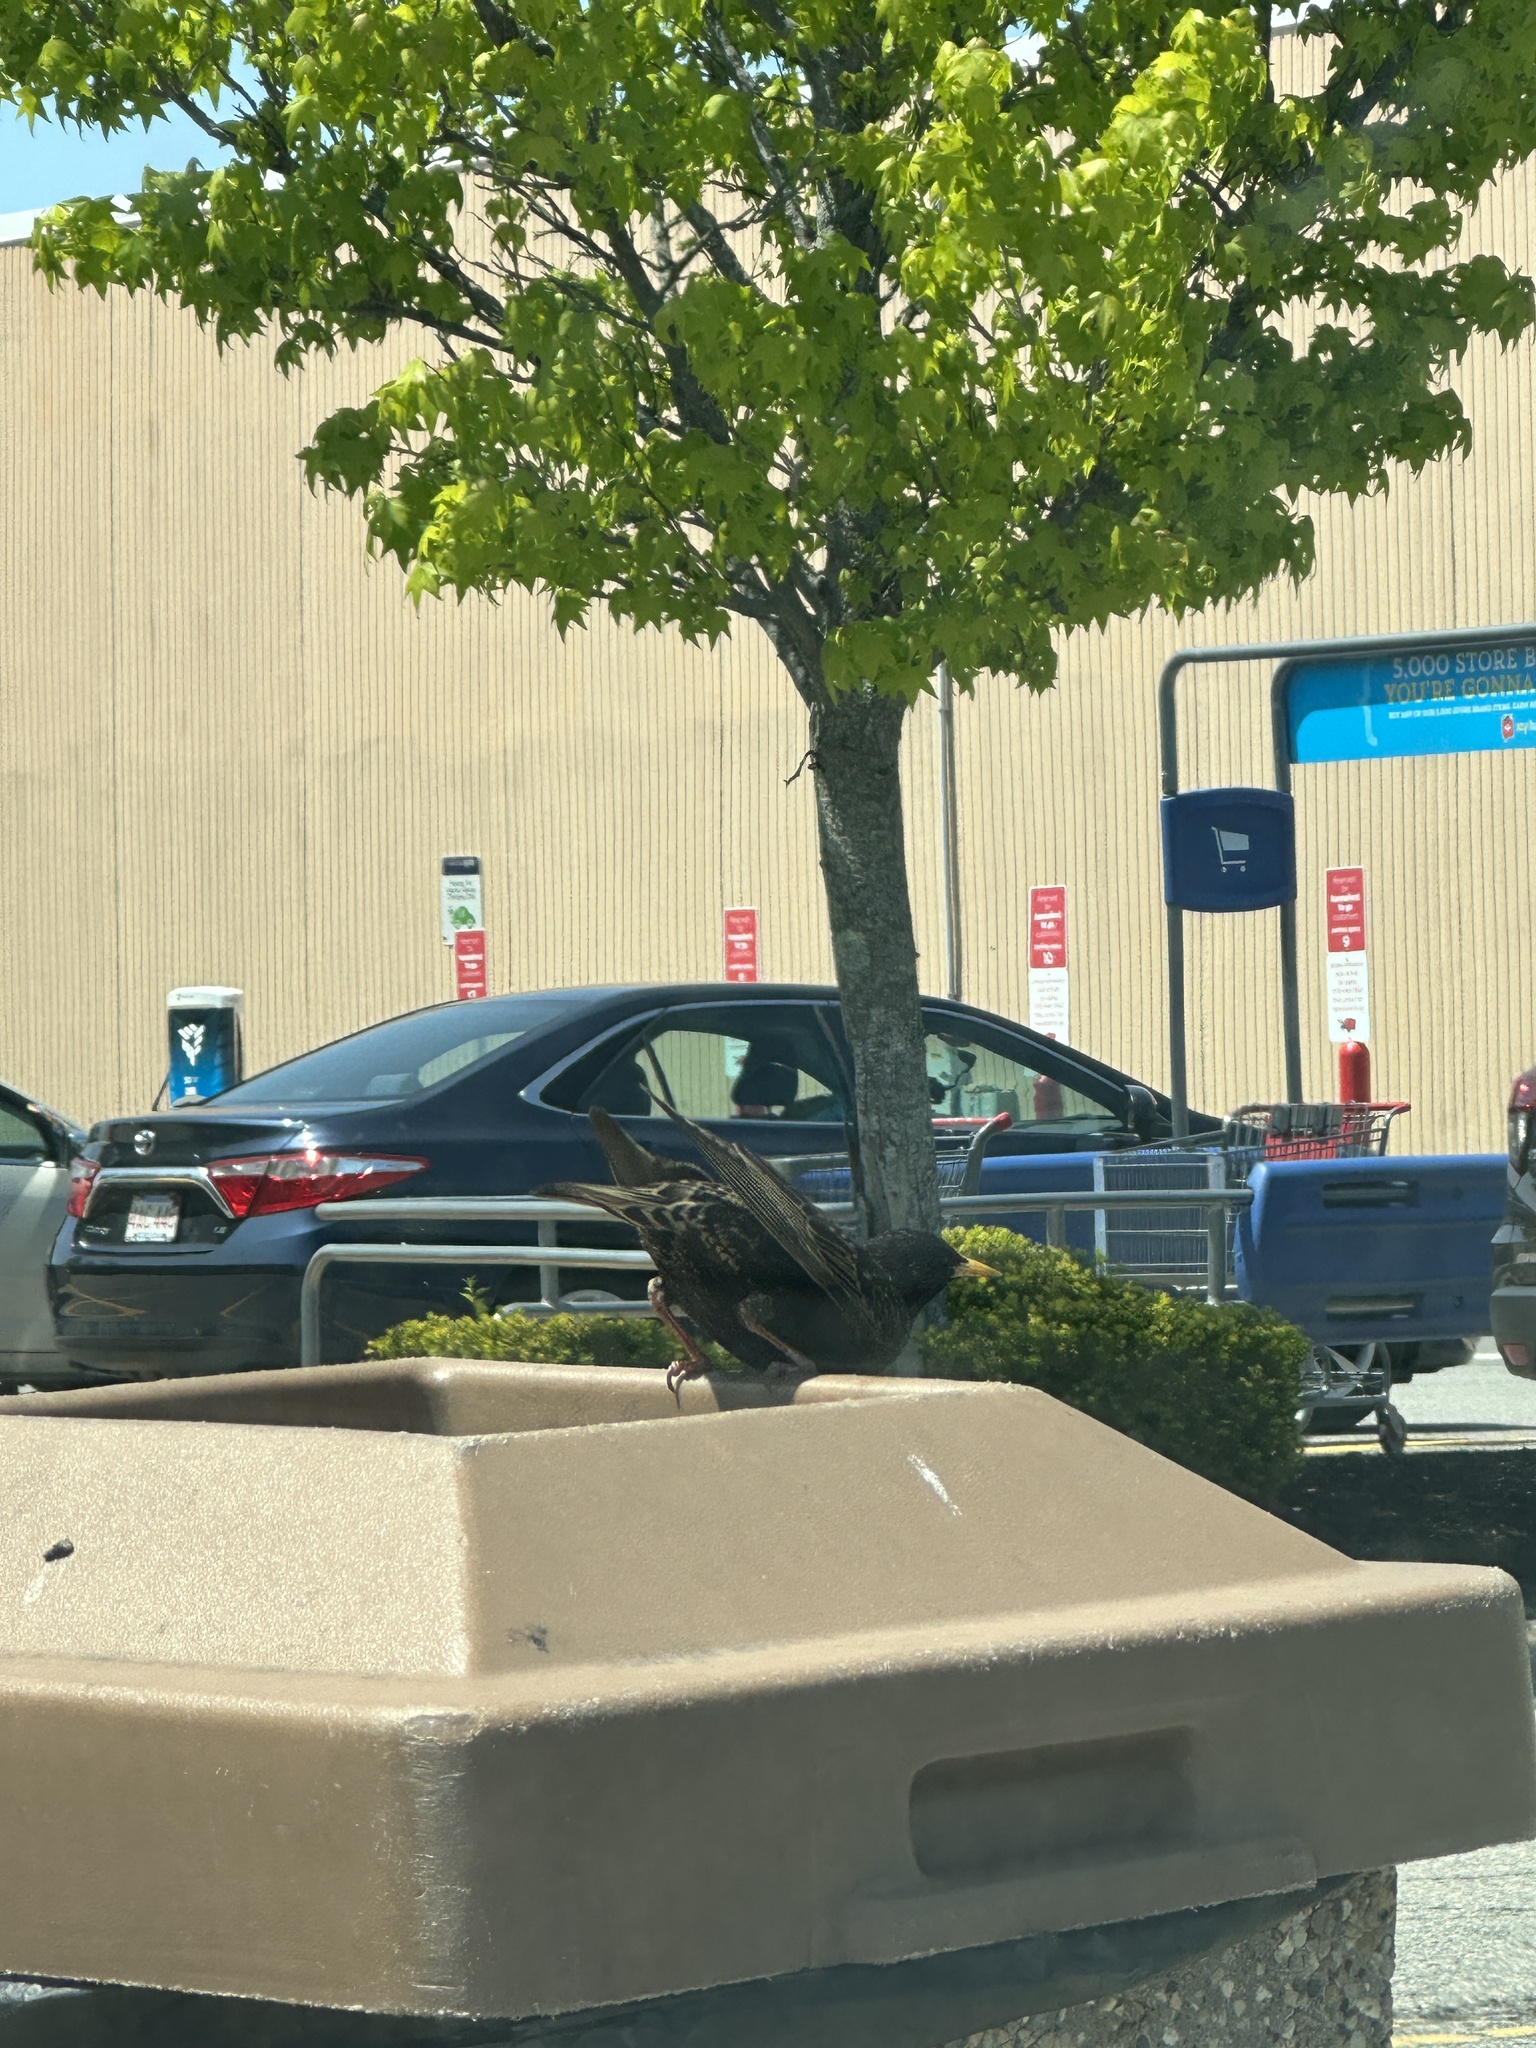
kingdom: Animalia
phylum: Chordata
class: Aves
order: Passeriformes
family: Sturnidae
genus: Sturnus
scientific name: Sturnus vulgaris
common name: Common starling
